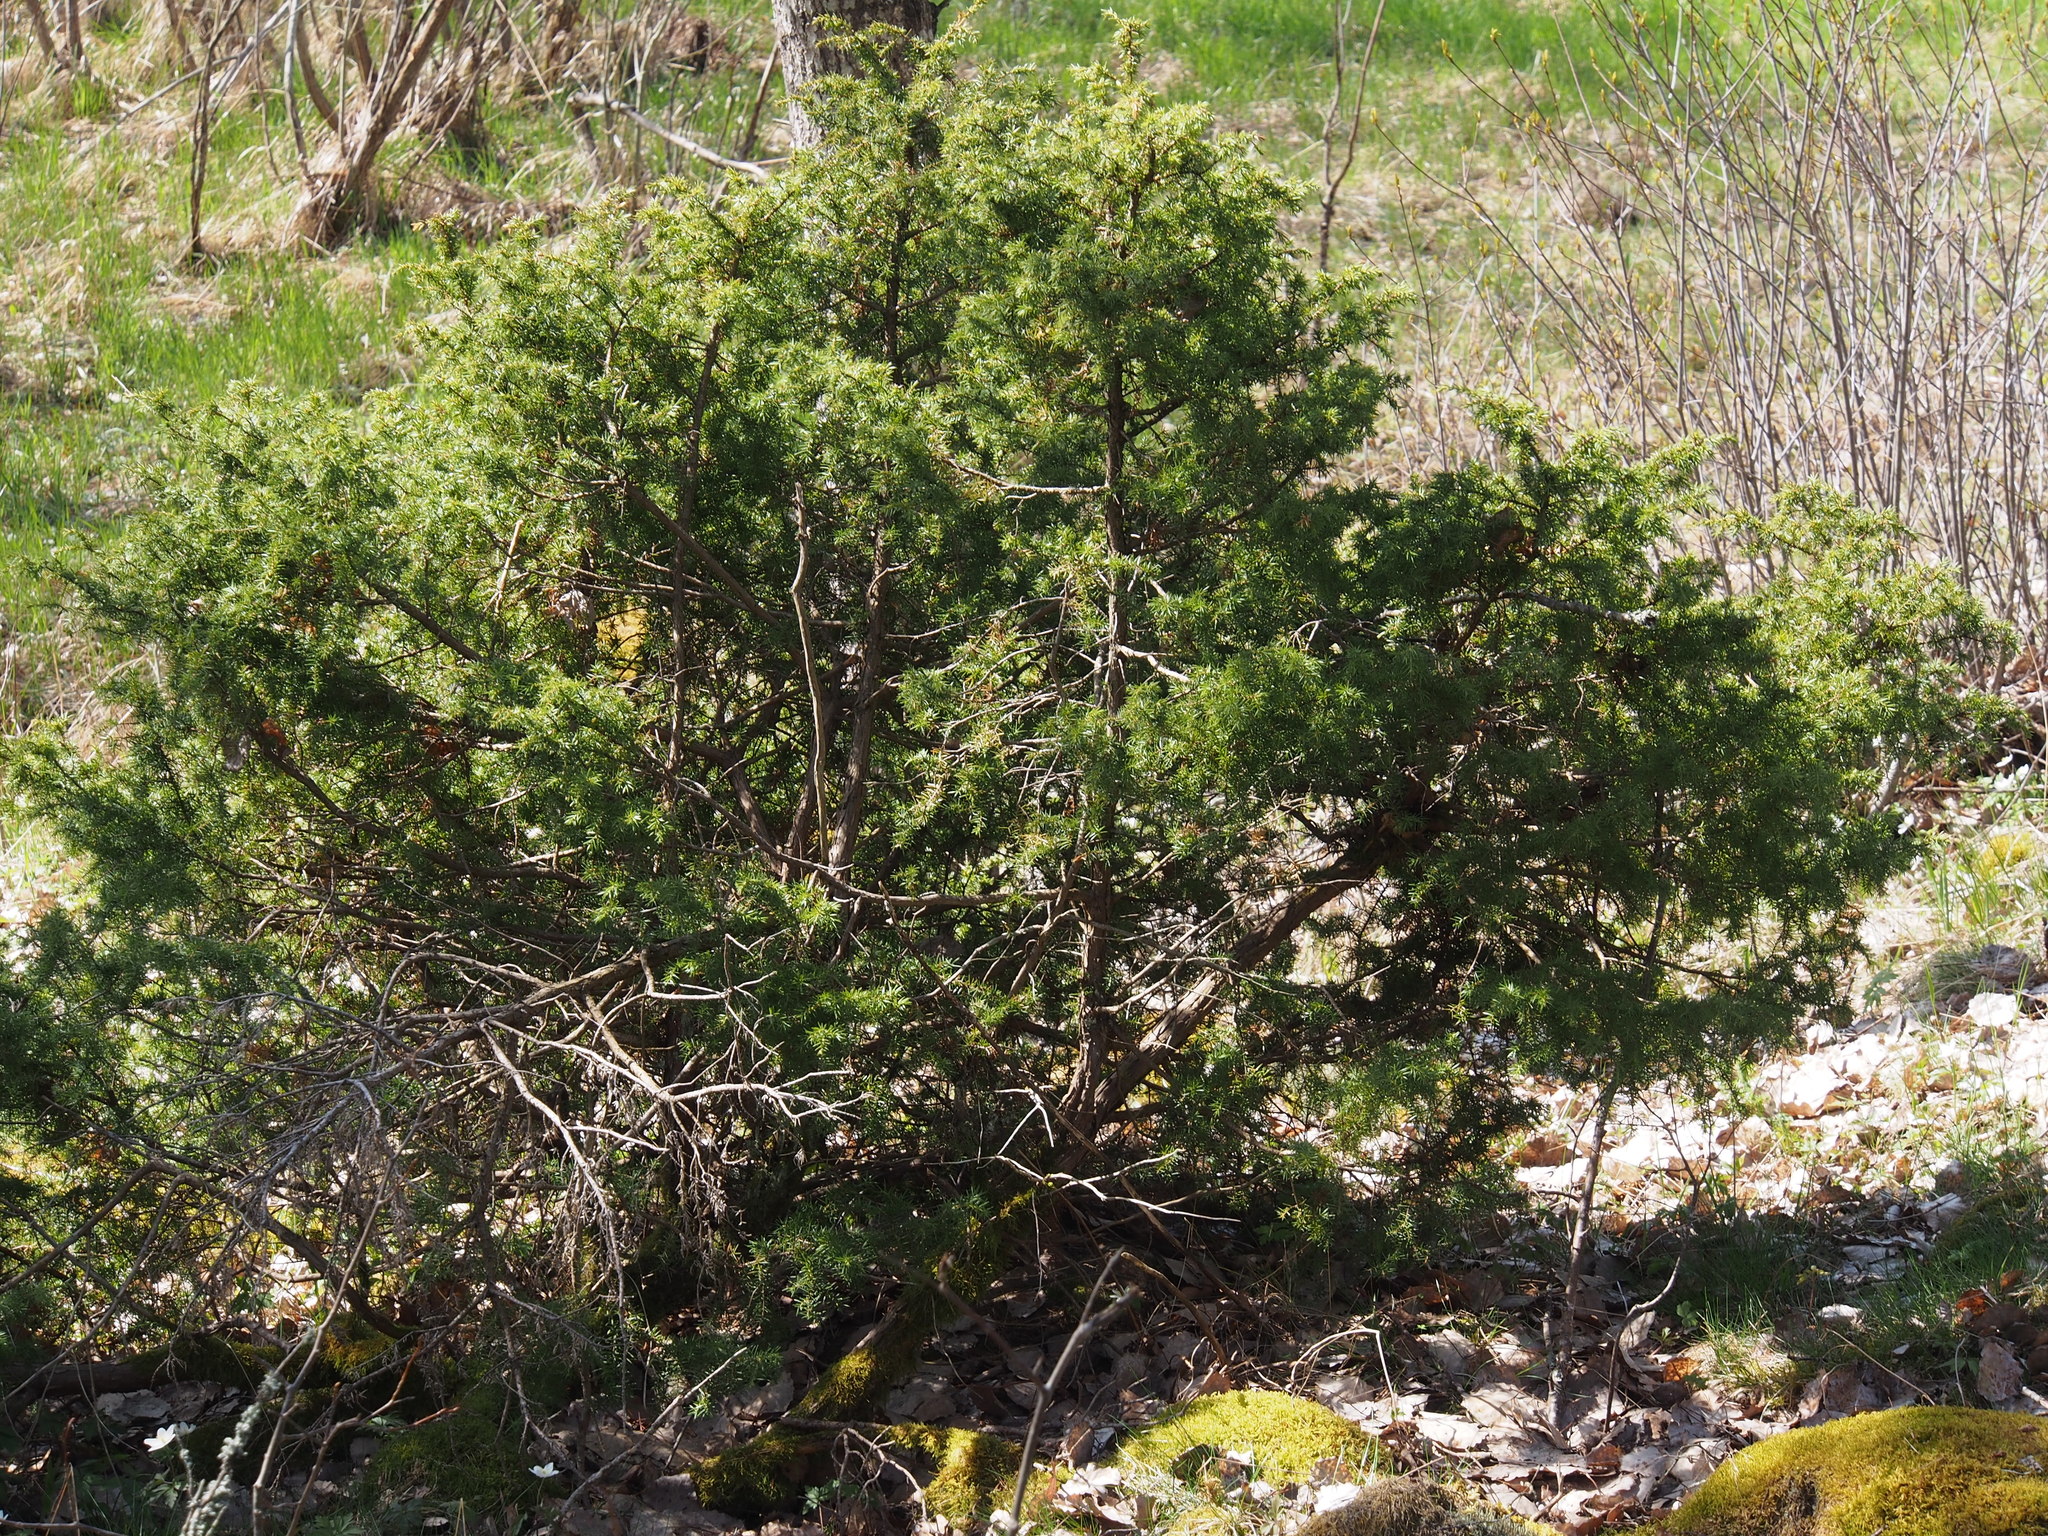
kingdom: Plantae
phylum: Tracheophyta
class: Pinopsida
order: Pinales
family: Cupressaceae
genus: Juniperus
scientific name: Juniperus communis
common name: Common juniper
